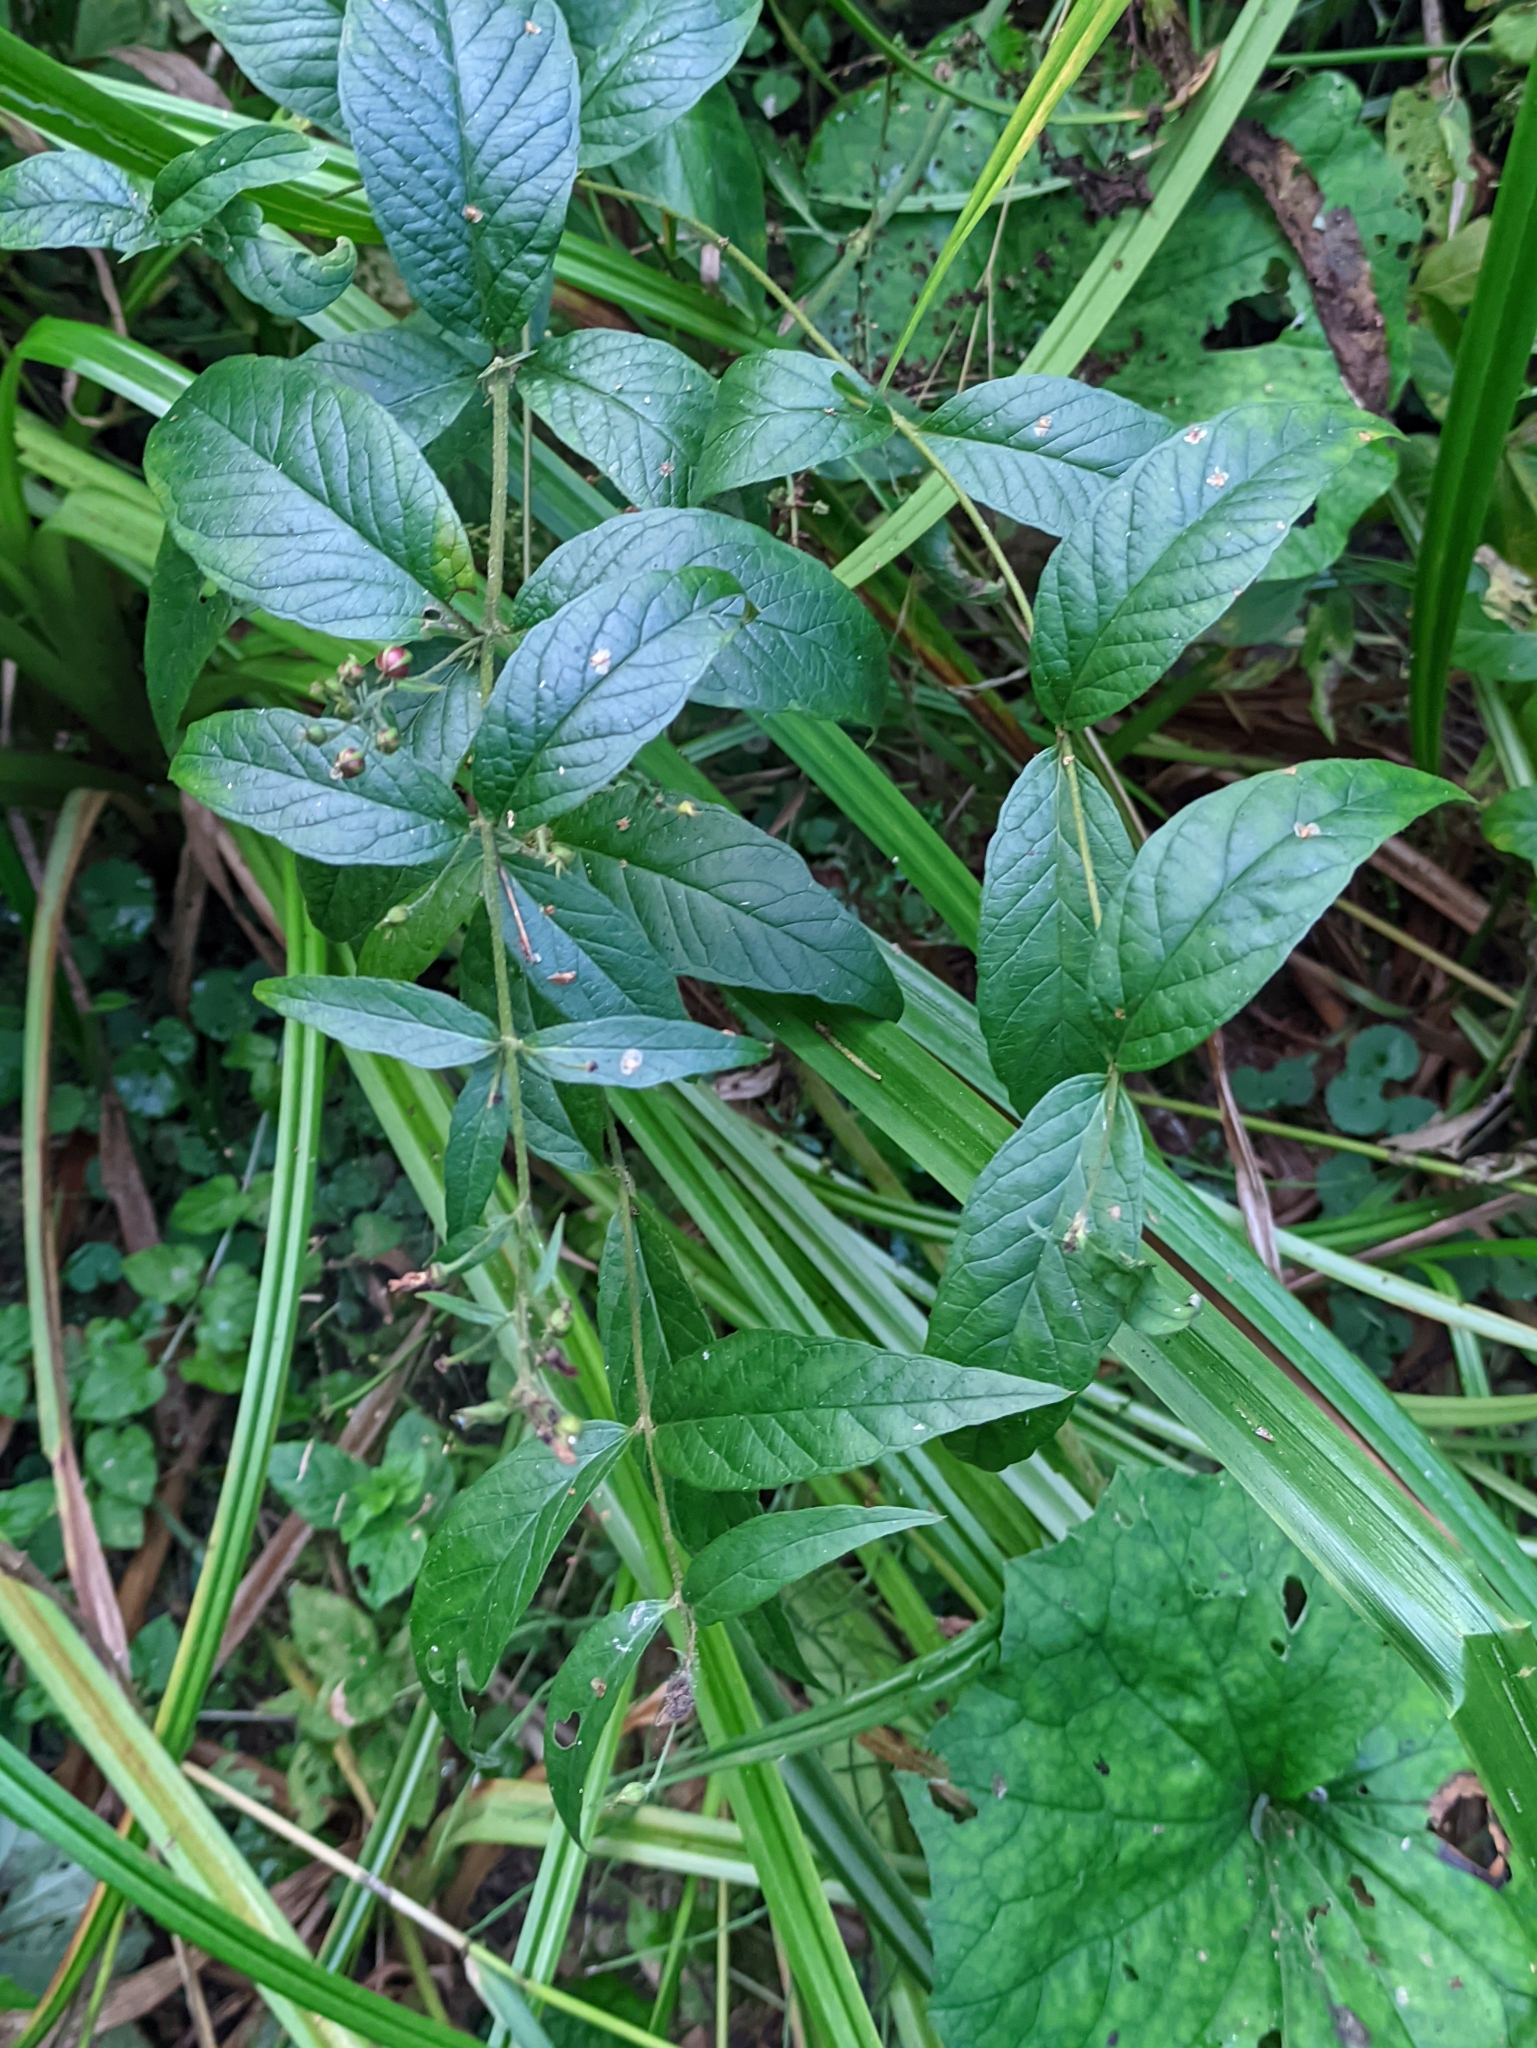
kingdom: Plantae
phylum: Tracheophyta
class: Magnoliopsida
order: Ericales
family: Primulaceae
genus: Lysimachia
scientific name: Lysimachia vulgaris
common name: Yellow loosestrife
